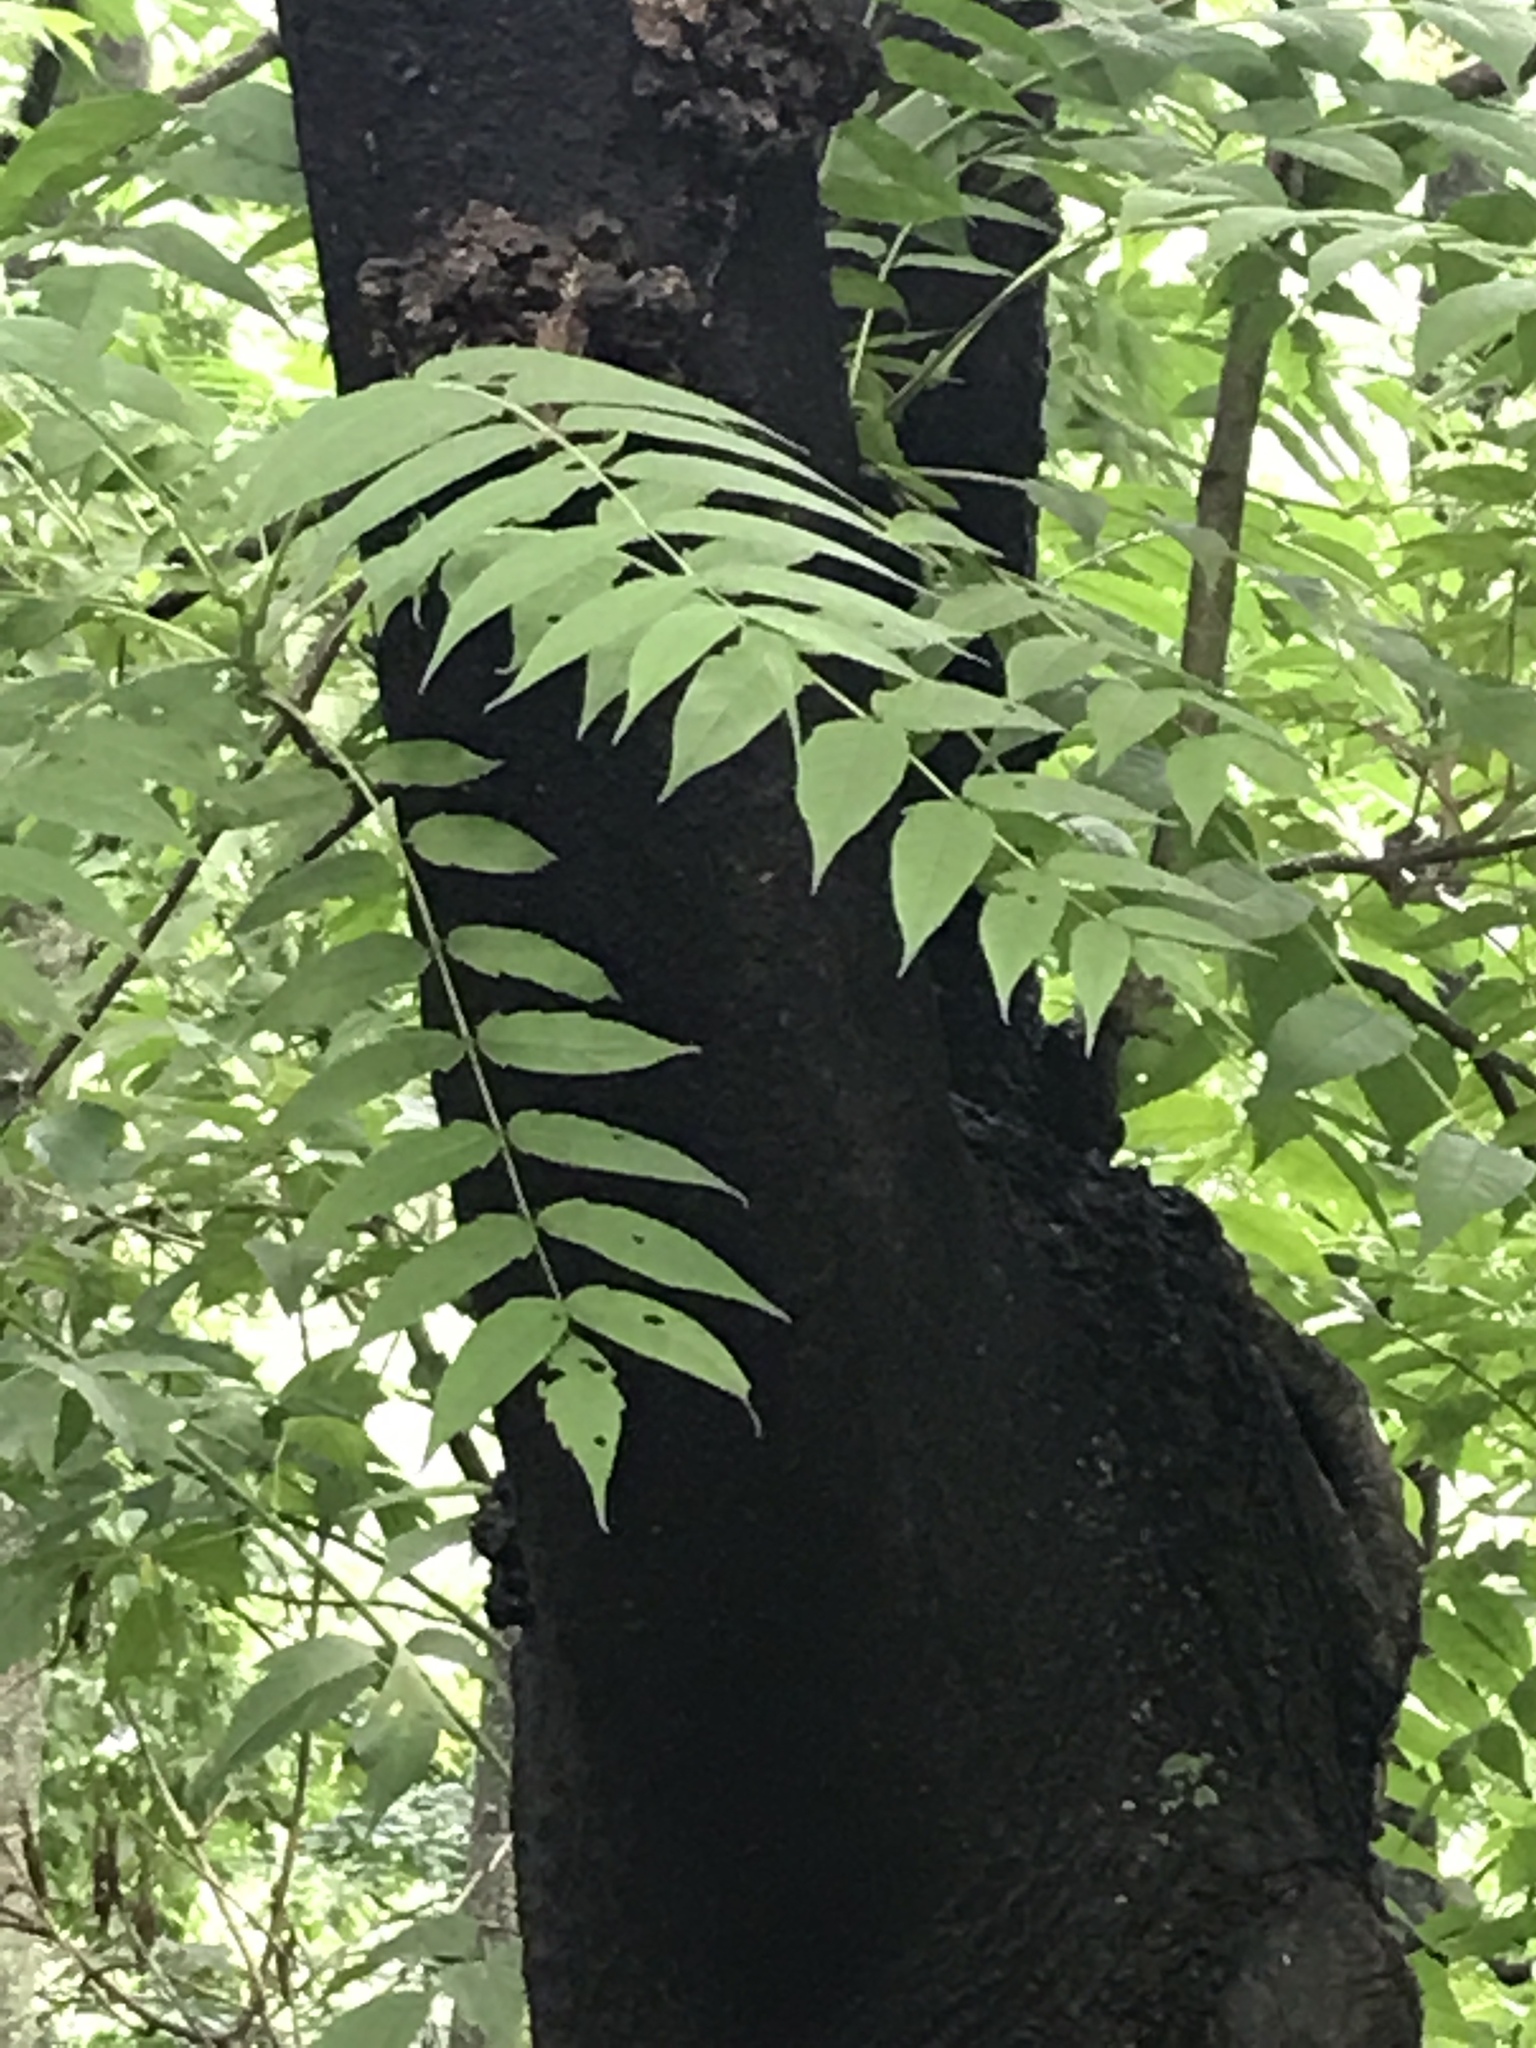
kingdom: Plantae
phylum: Tracheophyta
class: Magnoliopsida
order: Sapindales
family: Simaroubaceae
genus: Ailanthus
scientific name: Ailanthus altissima
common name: Tree-of-heaven
